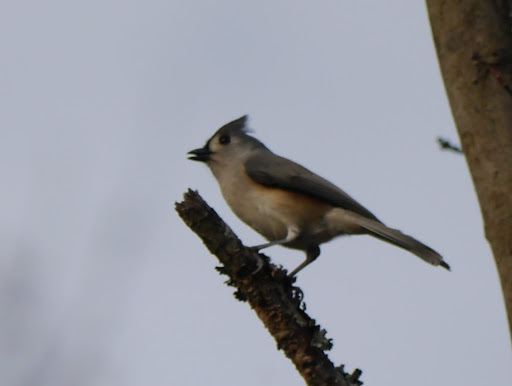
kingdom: Animalia
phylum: Chordata
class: Aves
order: Passeriformes
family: Paridae
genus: Baeolophus
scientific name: Baeolophus bicolor
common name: Tufted titmouse
